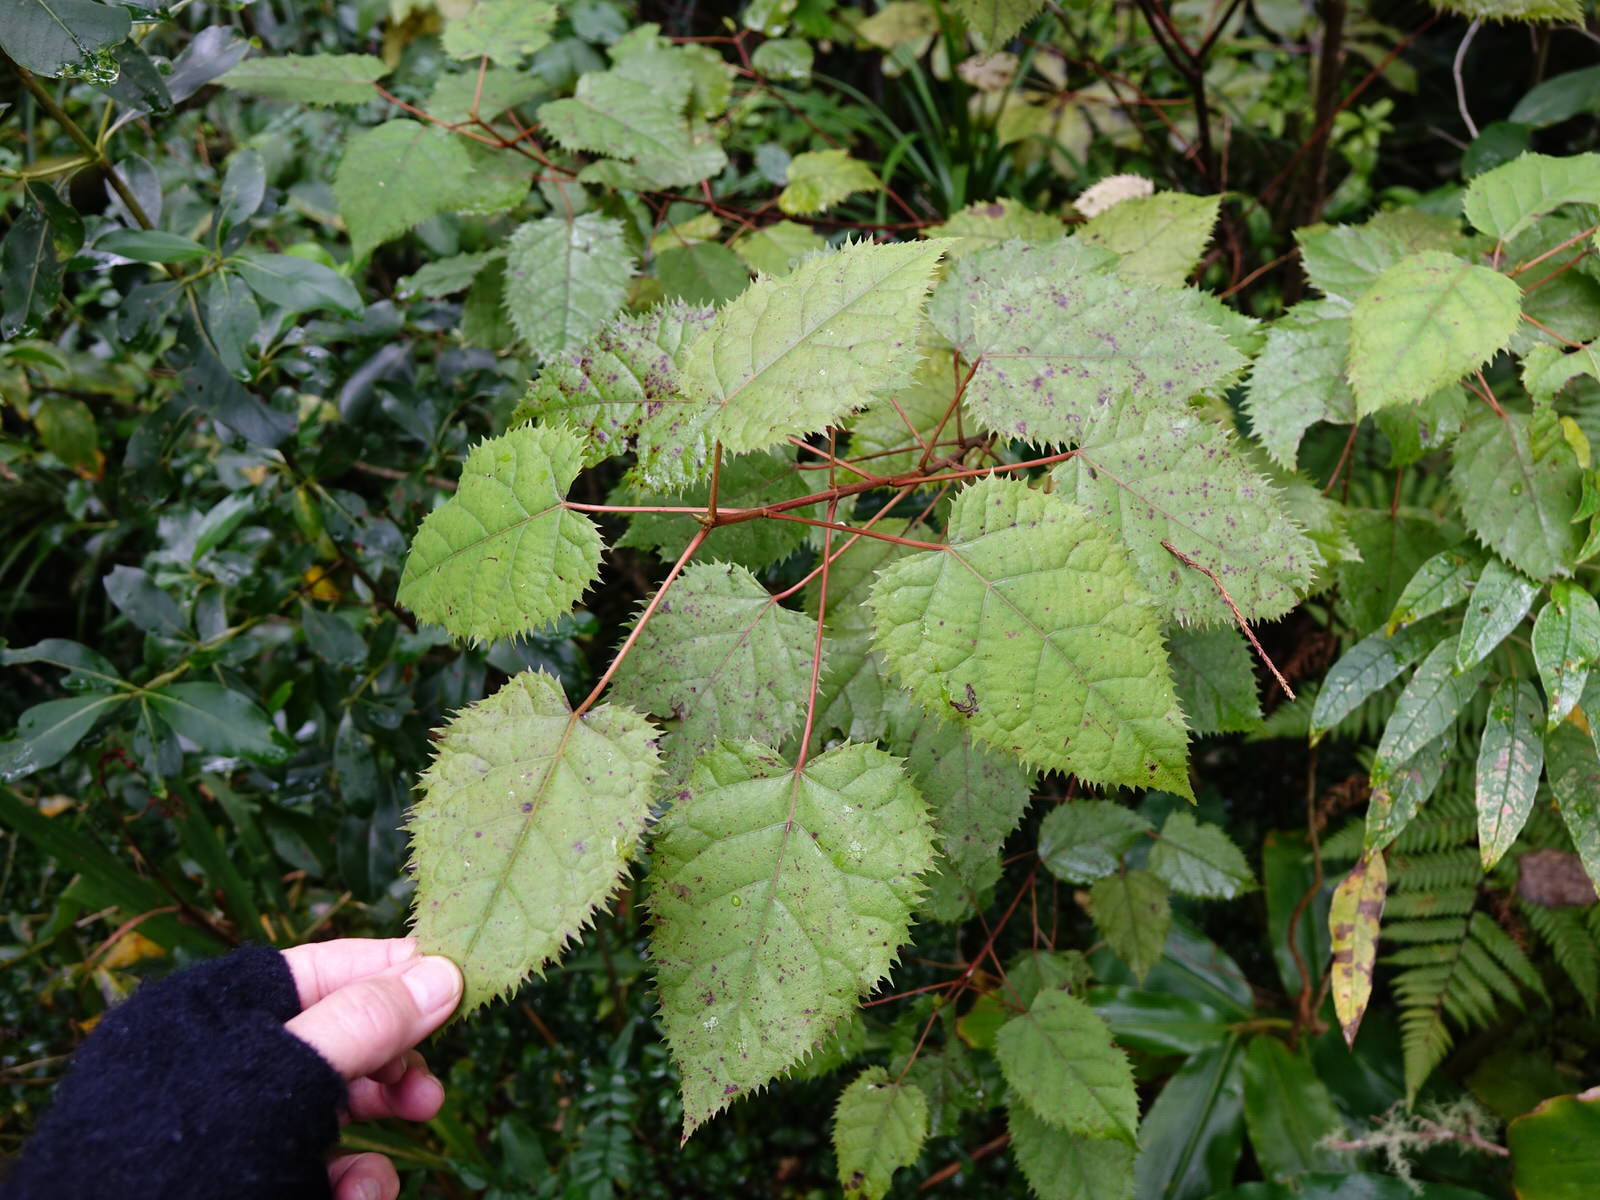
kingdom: Plantae
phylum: Tracheophyta
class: Magnoliopsida
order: Oxalidales
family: Elaeocarpaceae
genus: Aristotelia
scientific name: Aristotelia serrata
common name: New zealand wineberry
